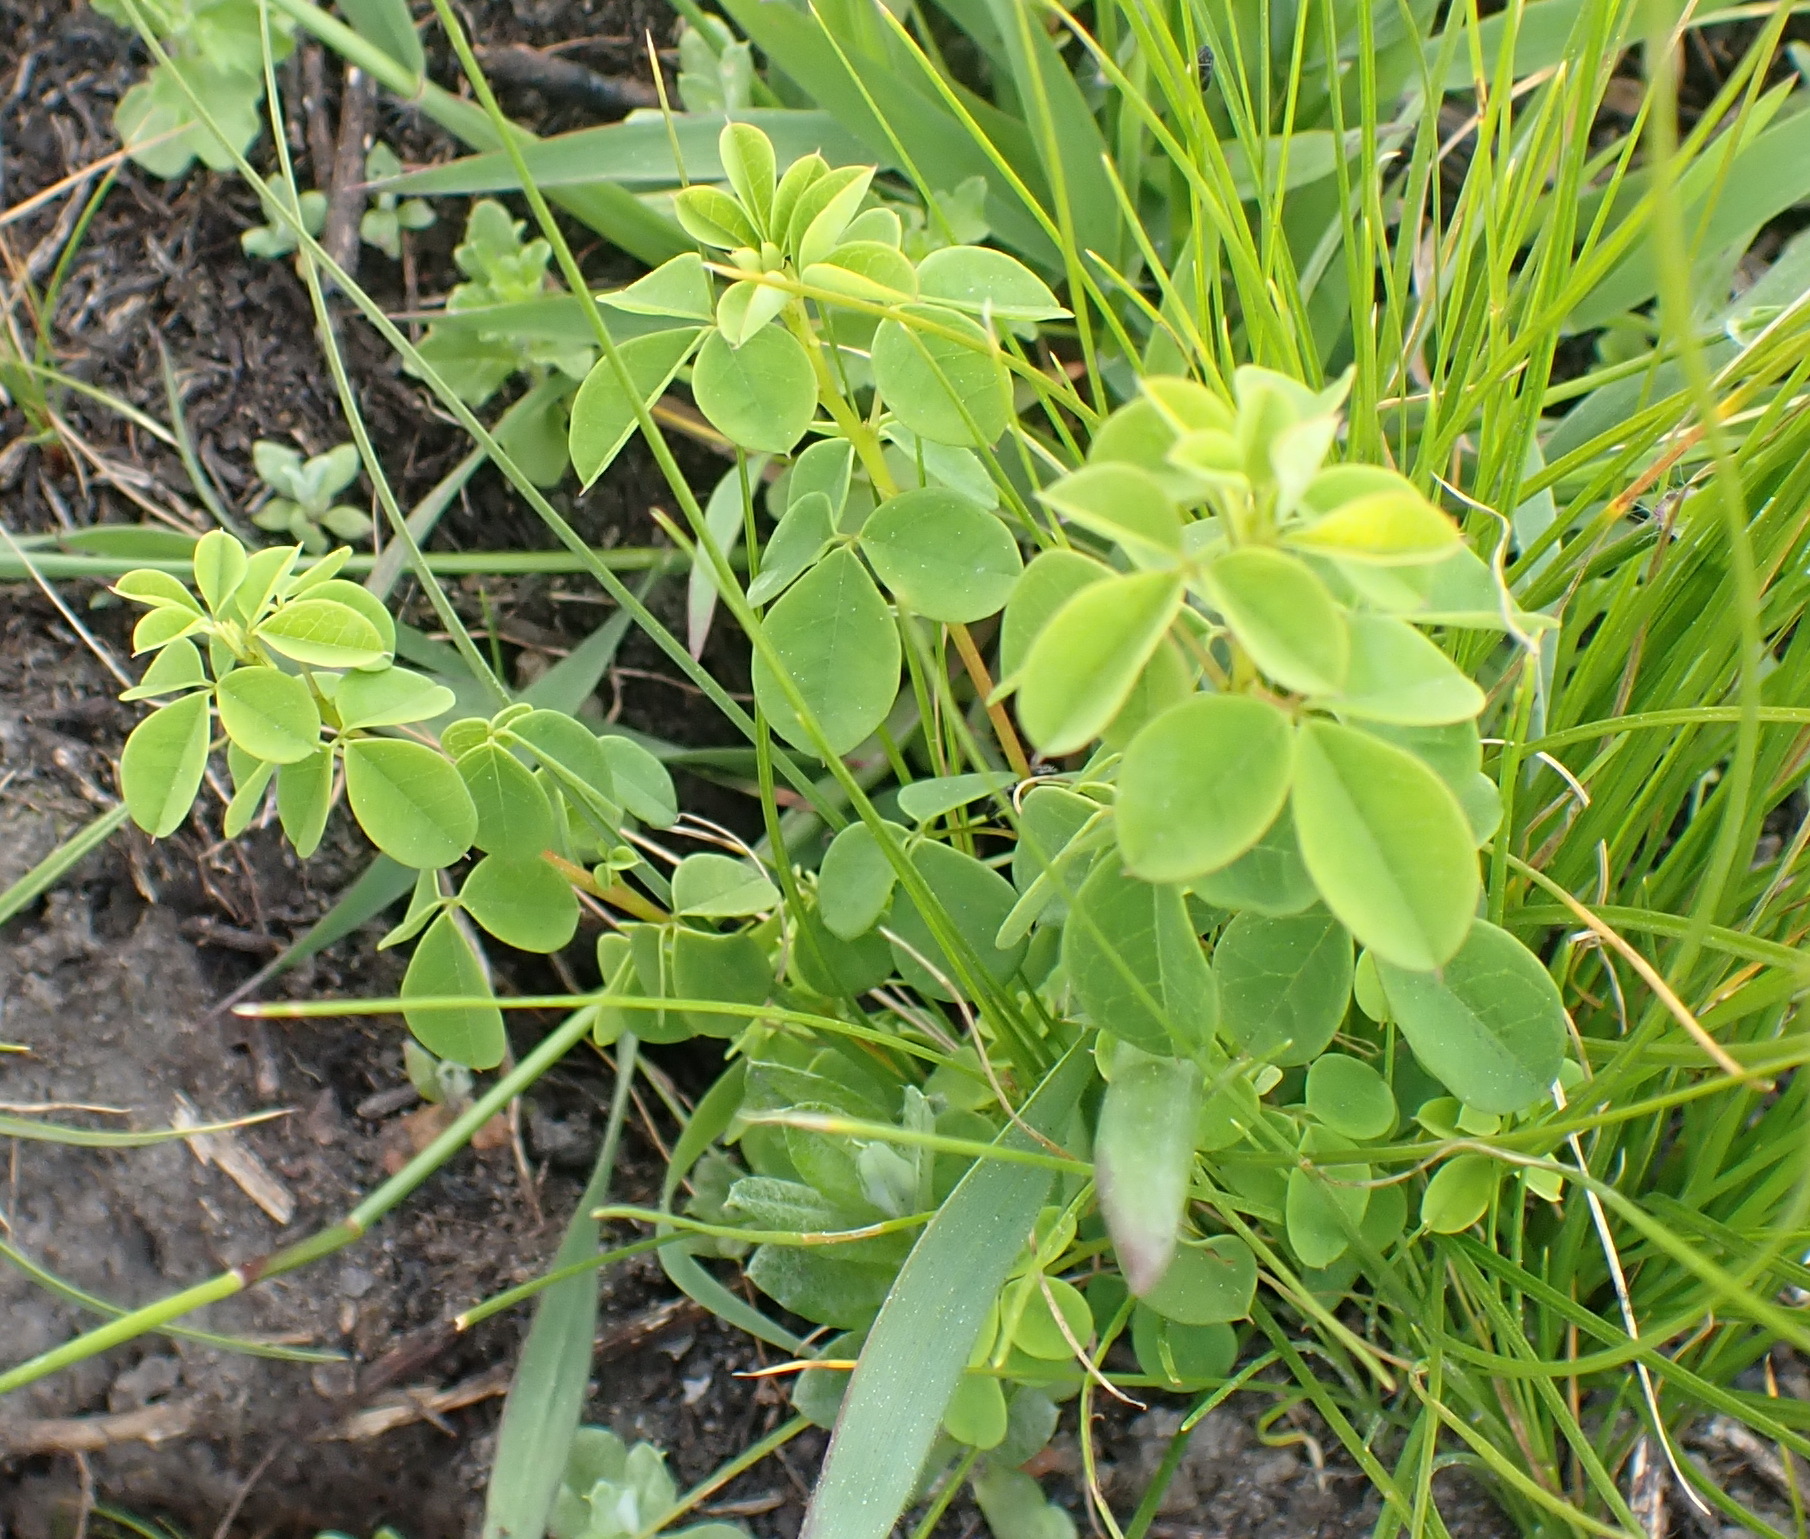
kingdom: Plantae
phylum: Tracheophyta
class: Magnoliopsida
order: Fabales
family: Fabaceae
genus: Hypocalyptus
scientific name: Hypocalyptus oxalidifolius
